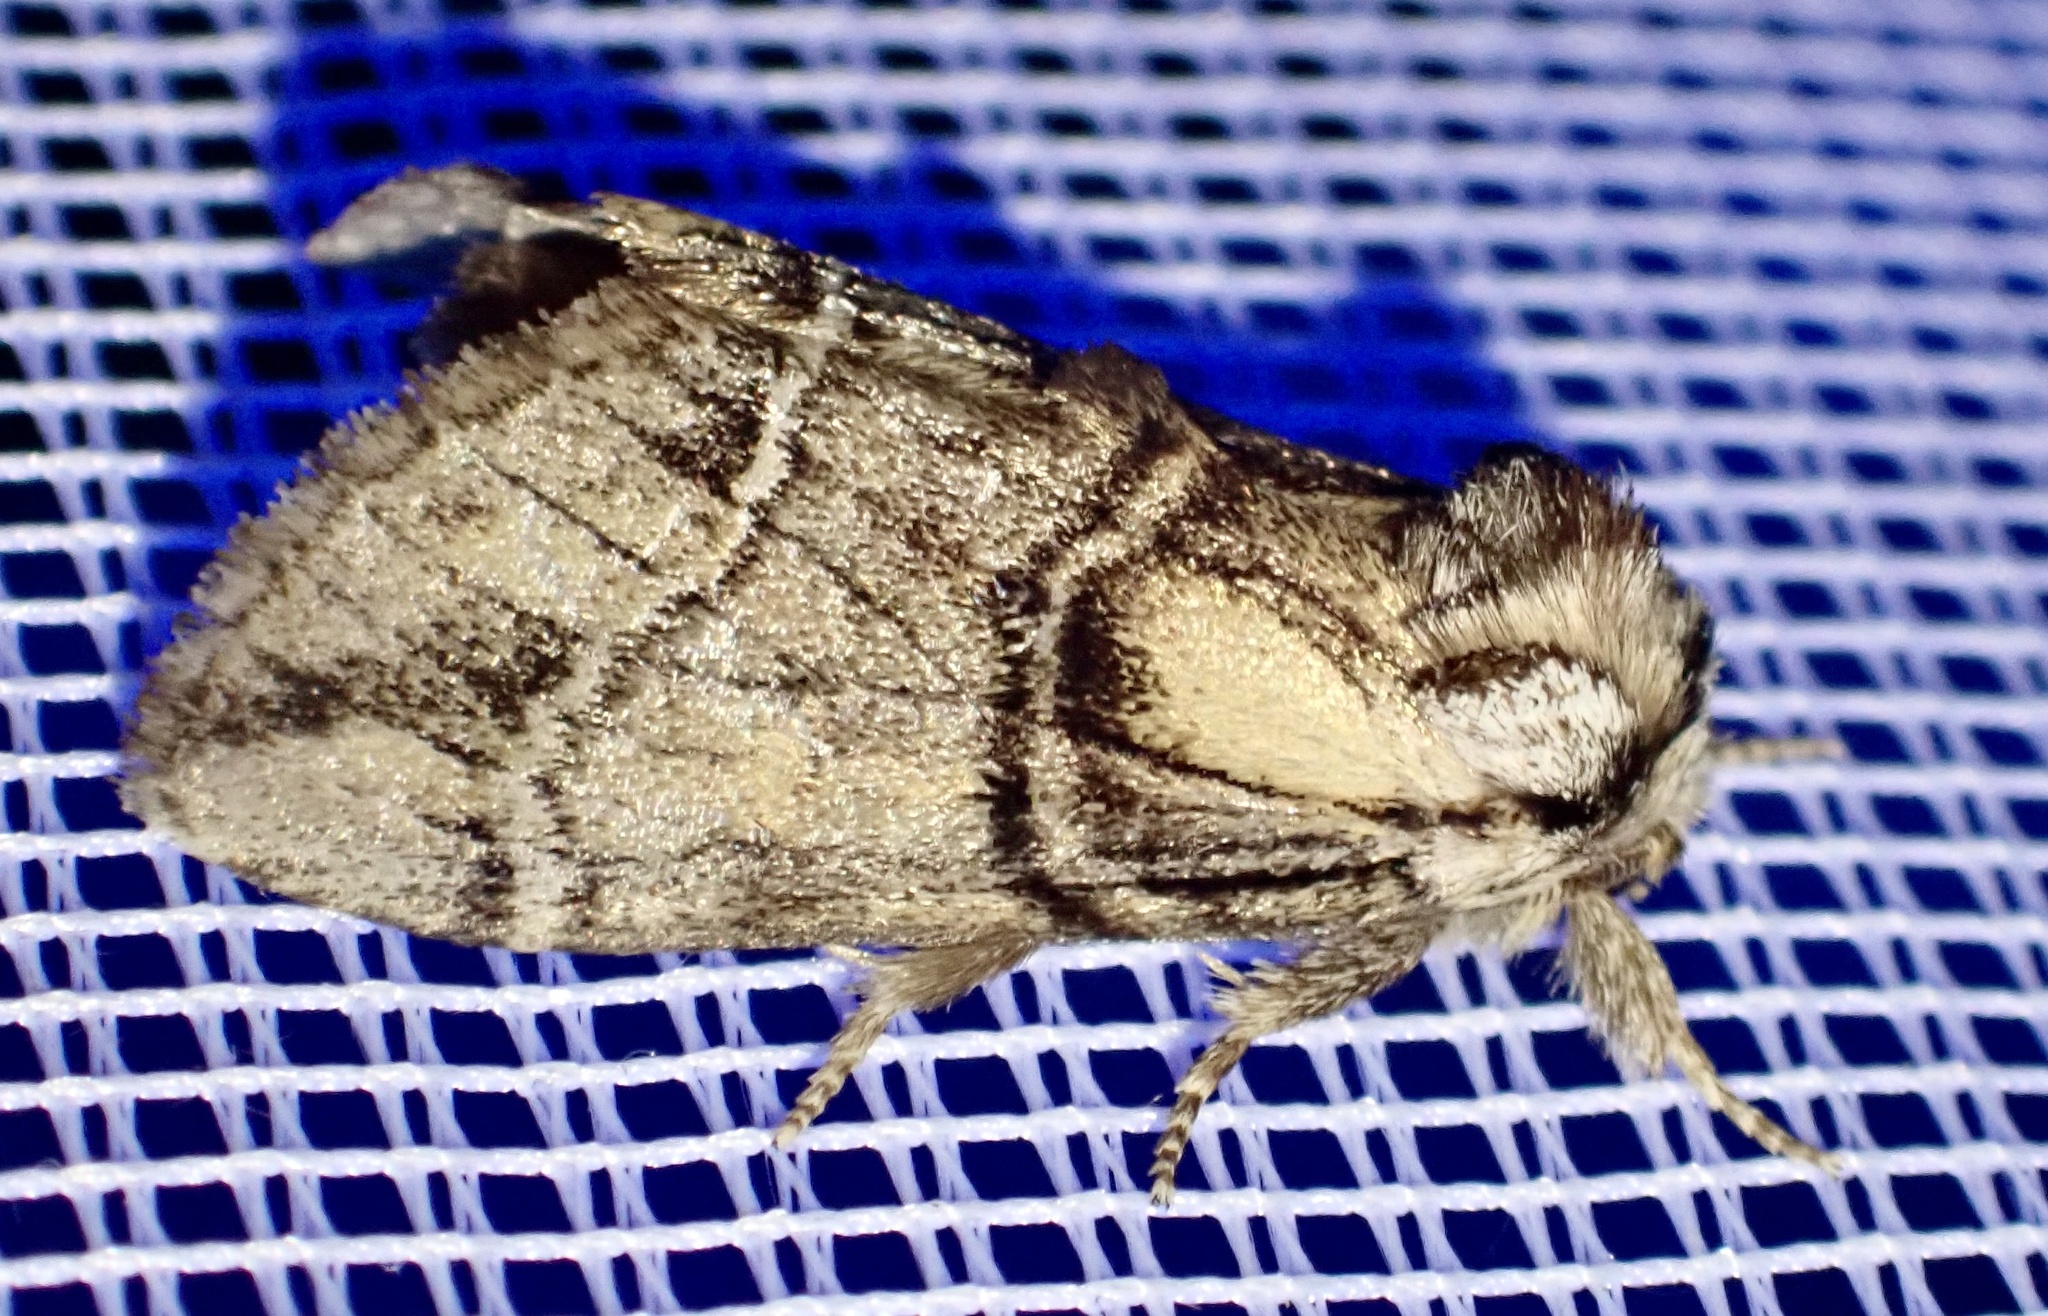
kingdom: Animalia
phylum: Arthropoda
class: Insecta
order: Lepidoptera
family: Notodontidae
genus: Drymonia
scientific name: Drymonia velitaris
